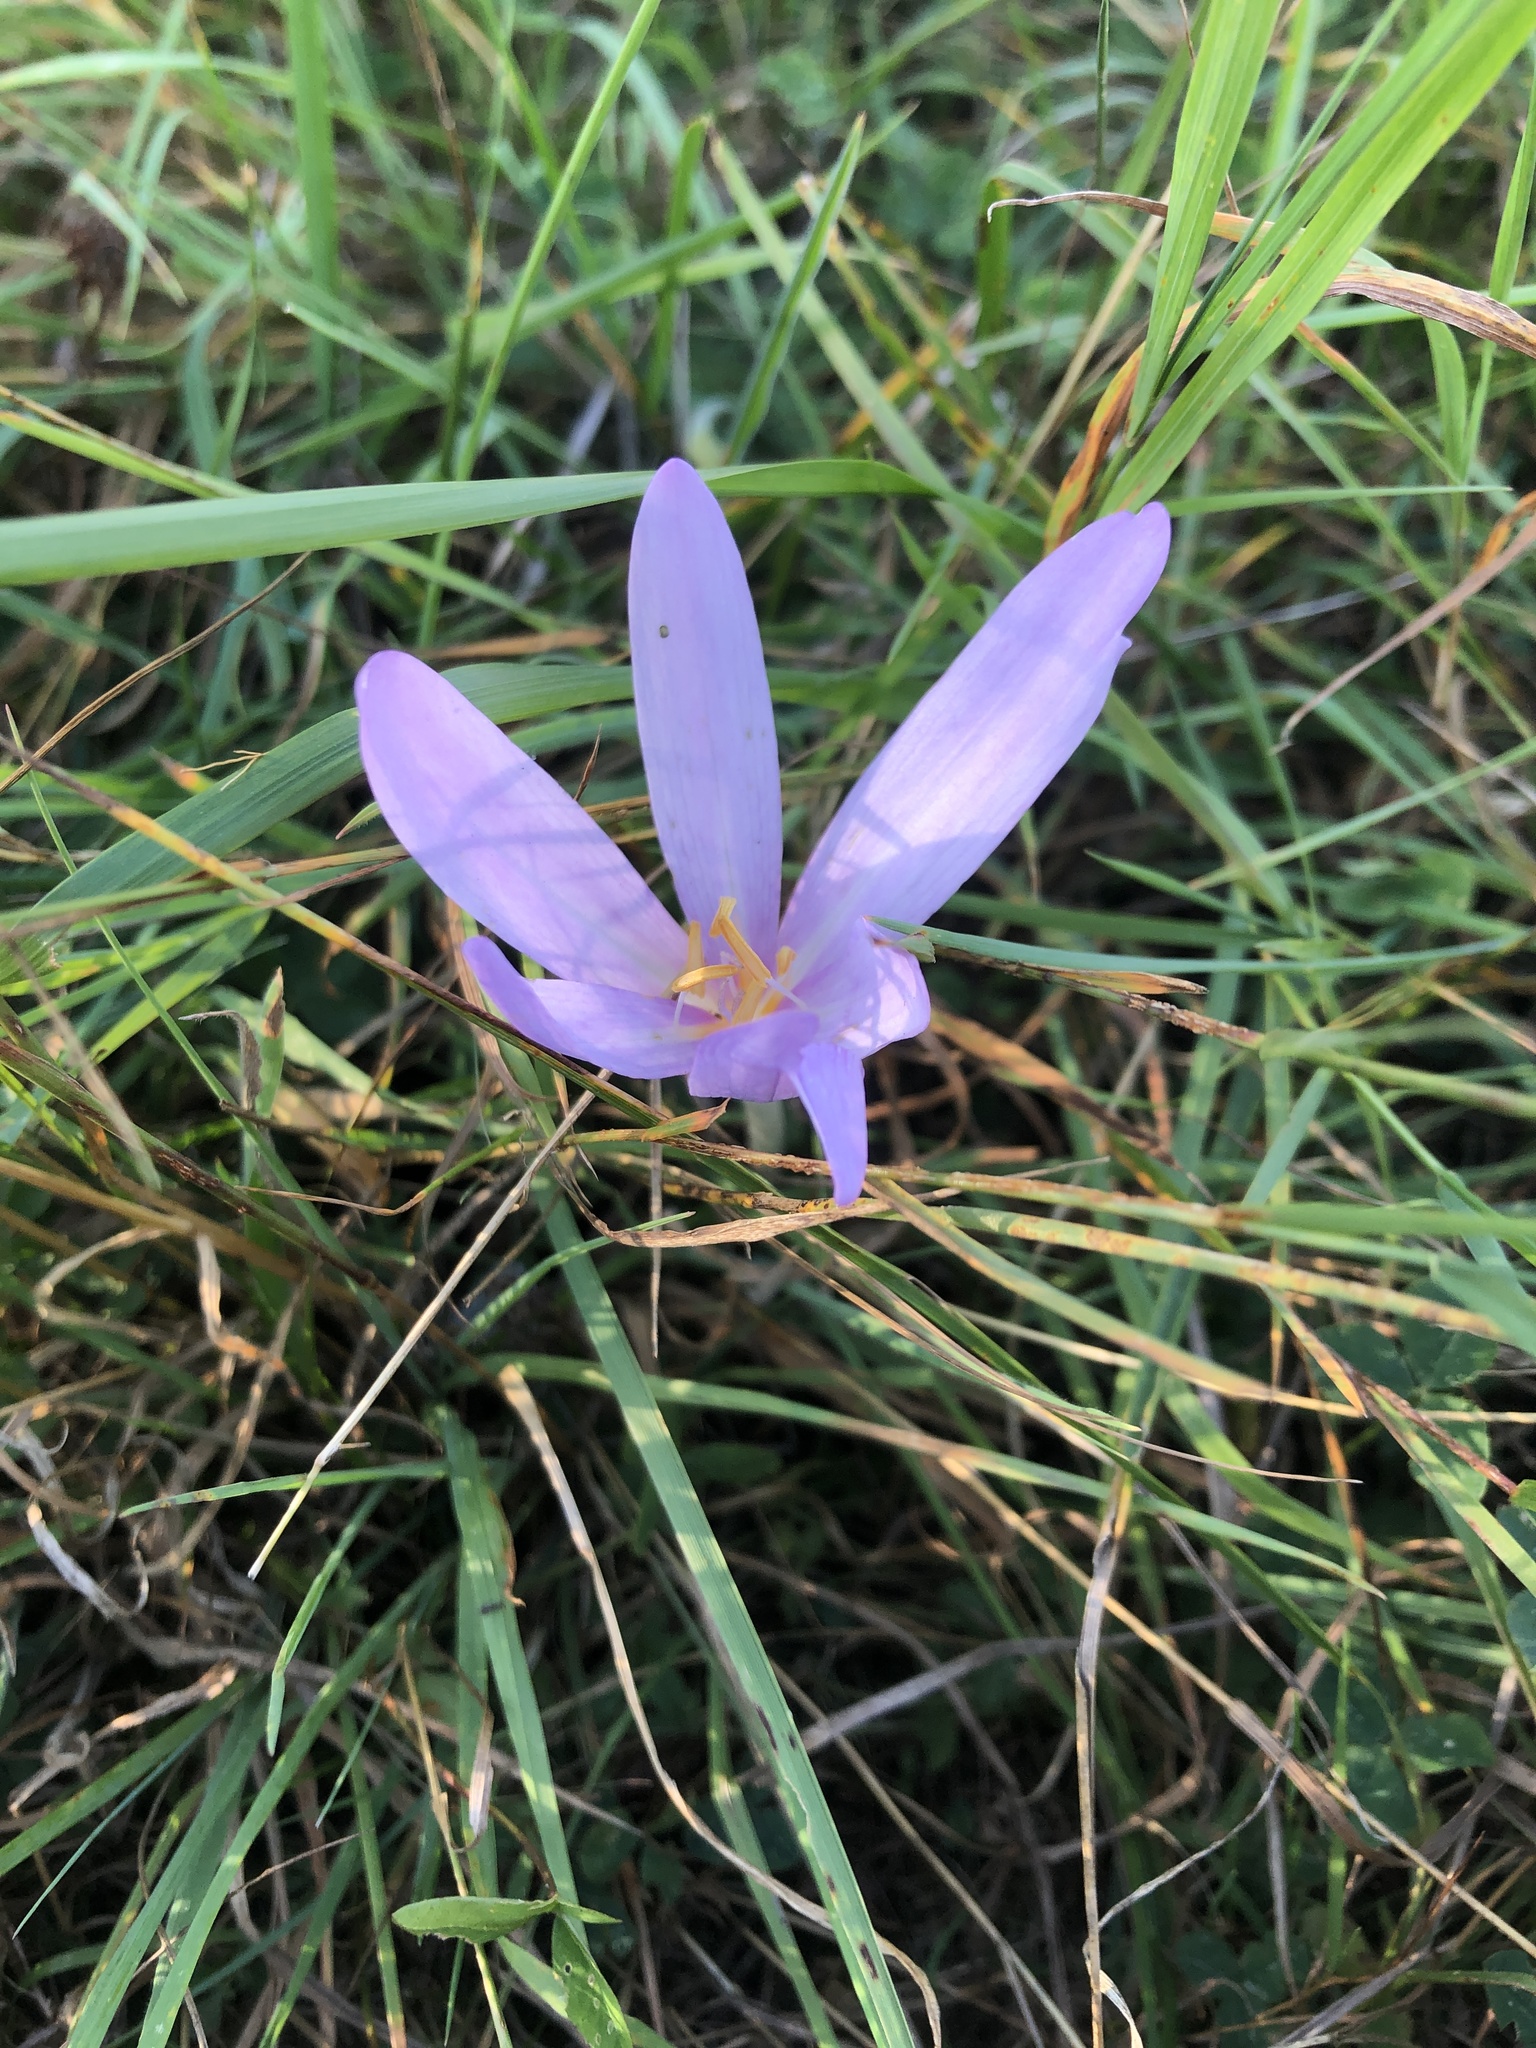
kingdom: Plantae
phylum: Tracheophyta
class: Liliopsida
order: Liliales
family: Colchicaceae
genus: Colchicum
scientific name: Colchicum autumnale
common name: Autumn crocus
